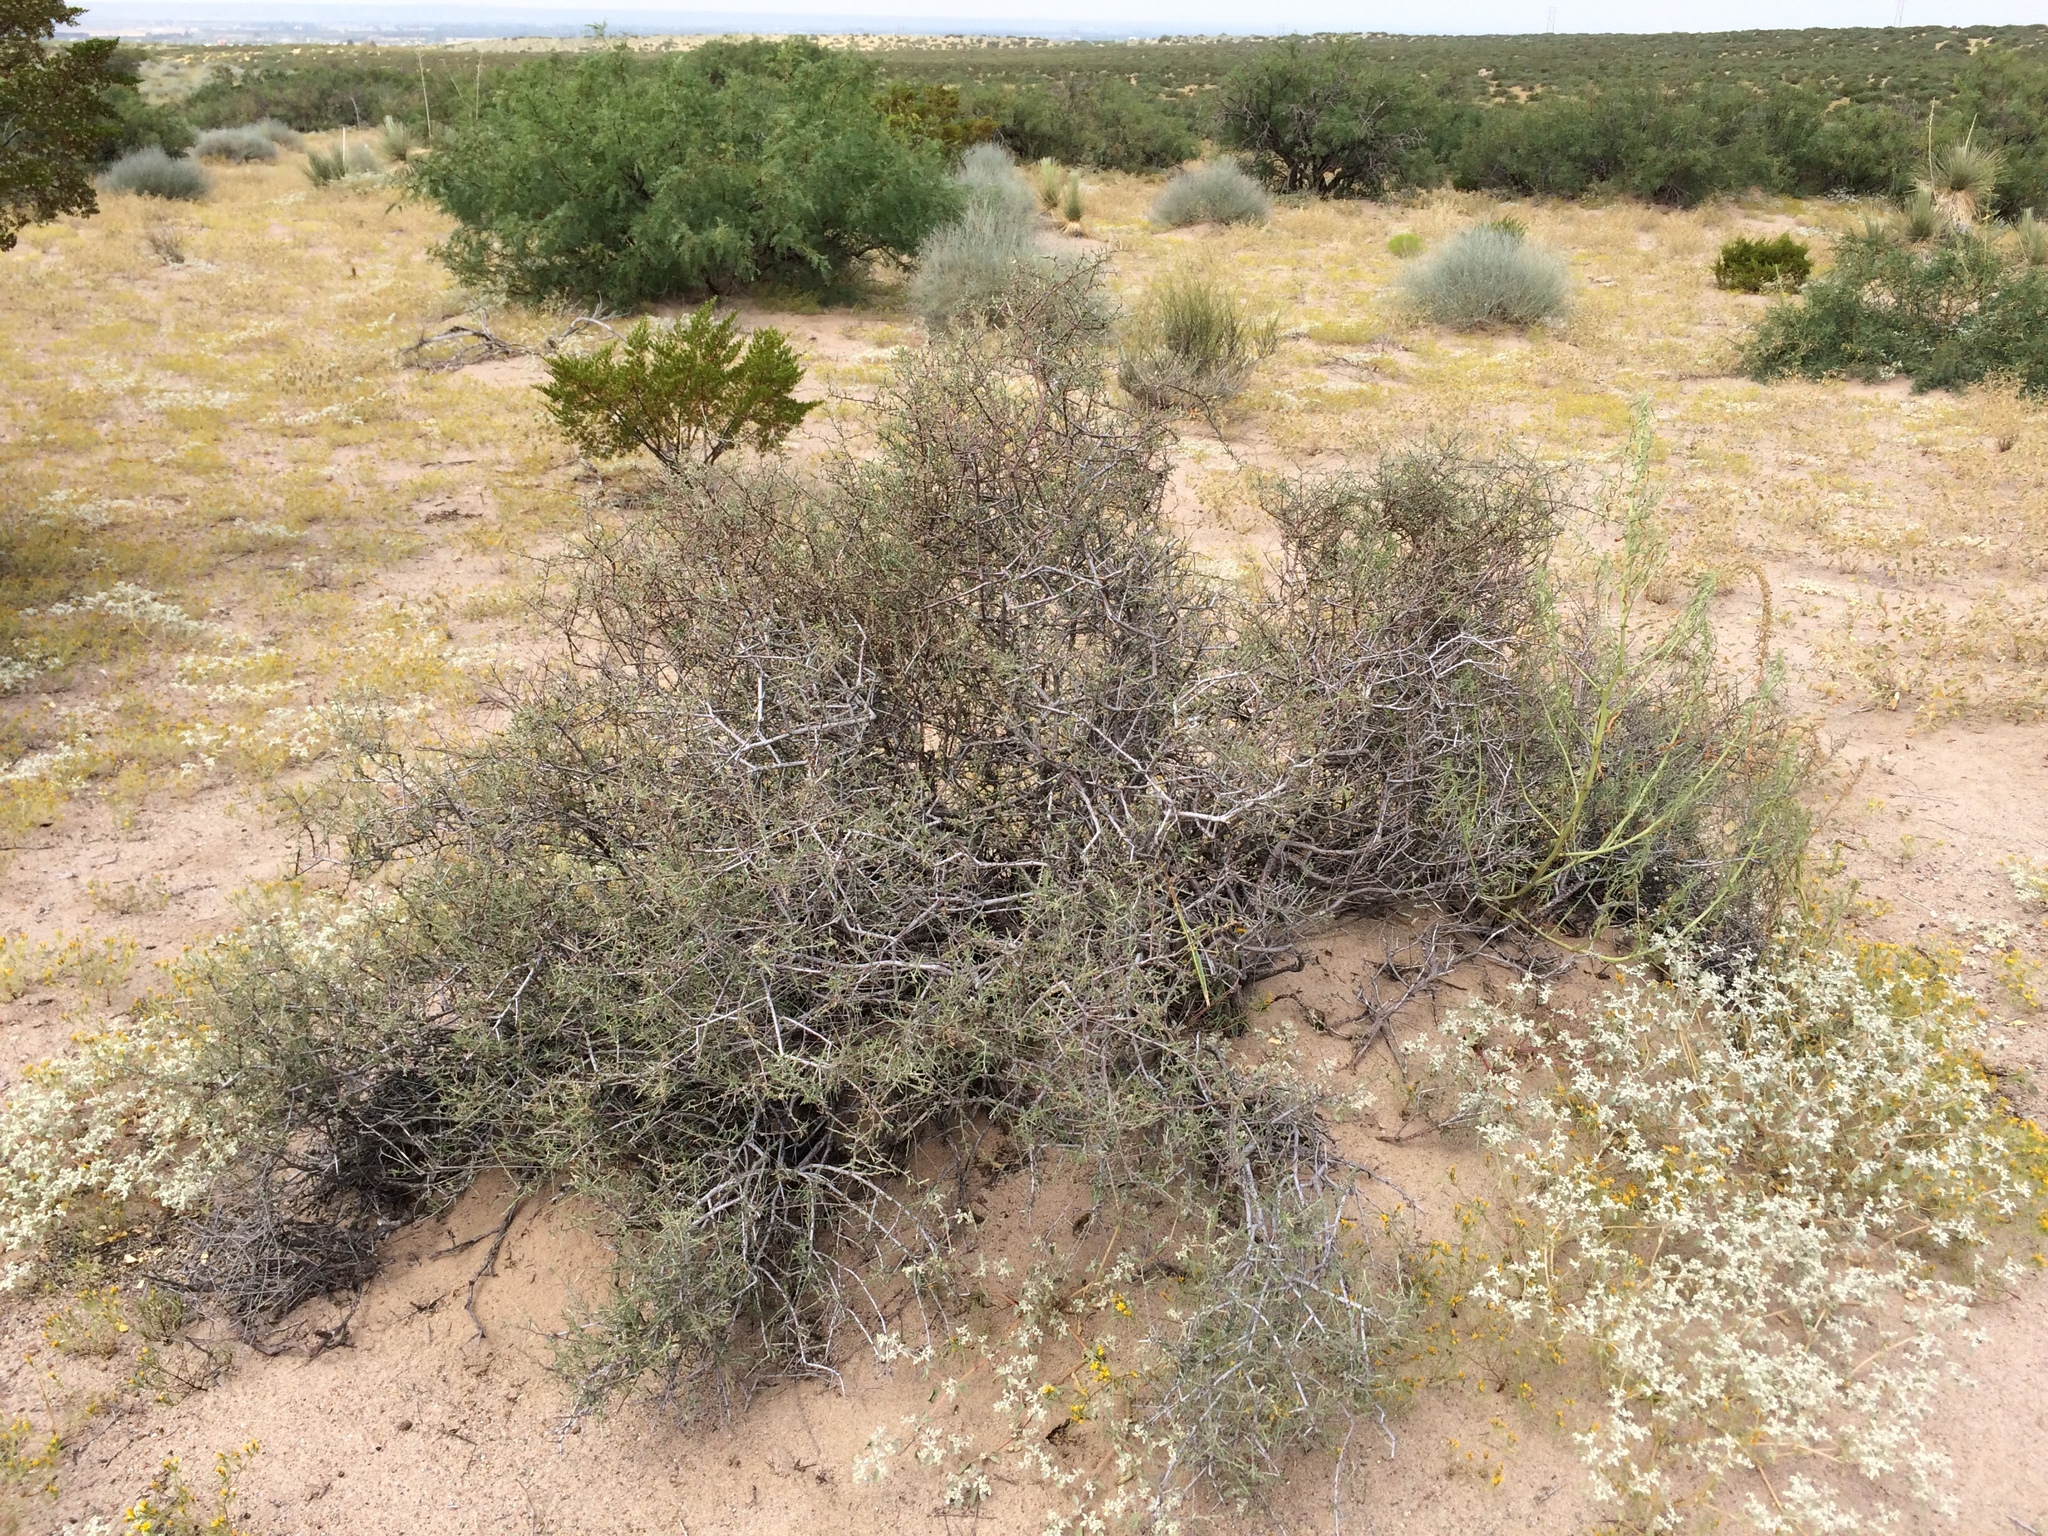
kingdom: Plantae
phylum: Tracheophyta
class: Magnoliopsida
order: Zygophyllales
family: Krameriaceae
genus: Krameria
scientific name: Krameria erecta
